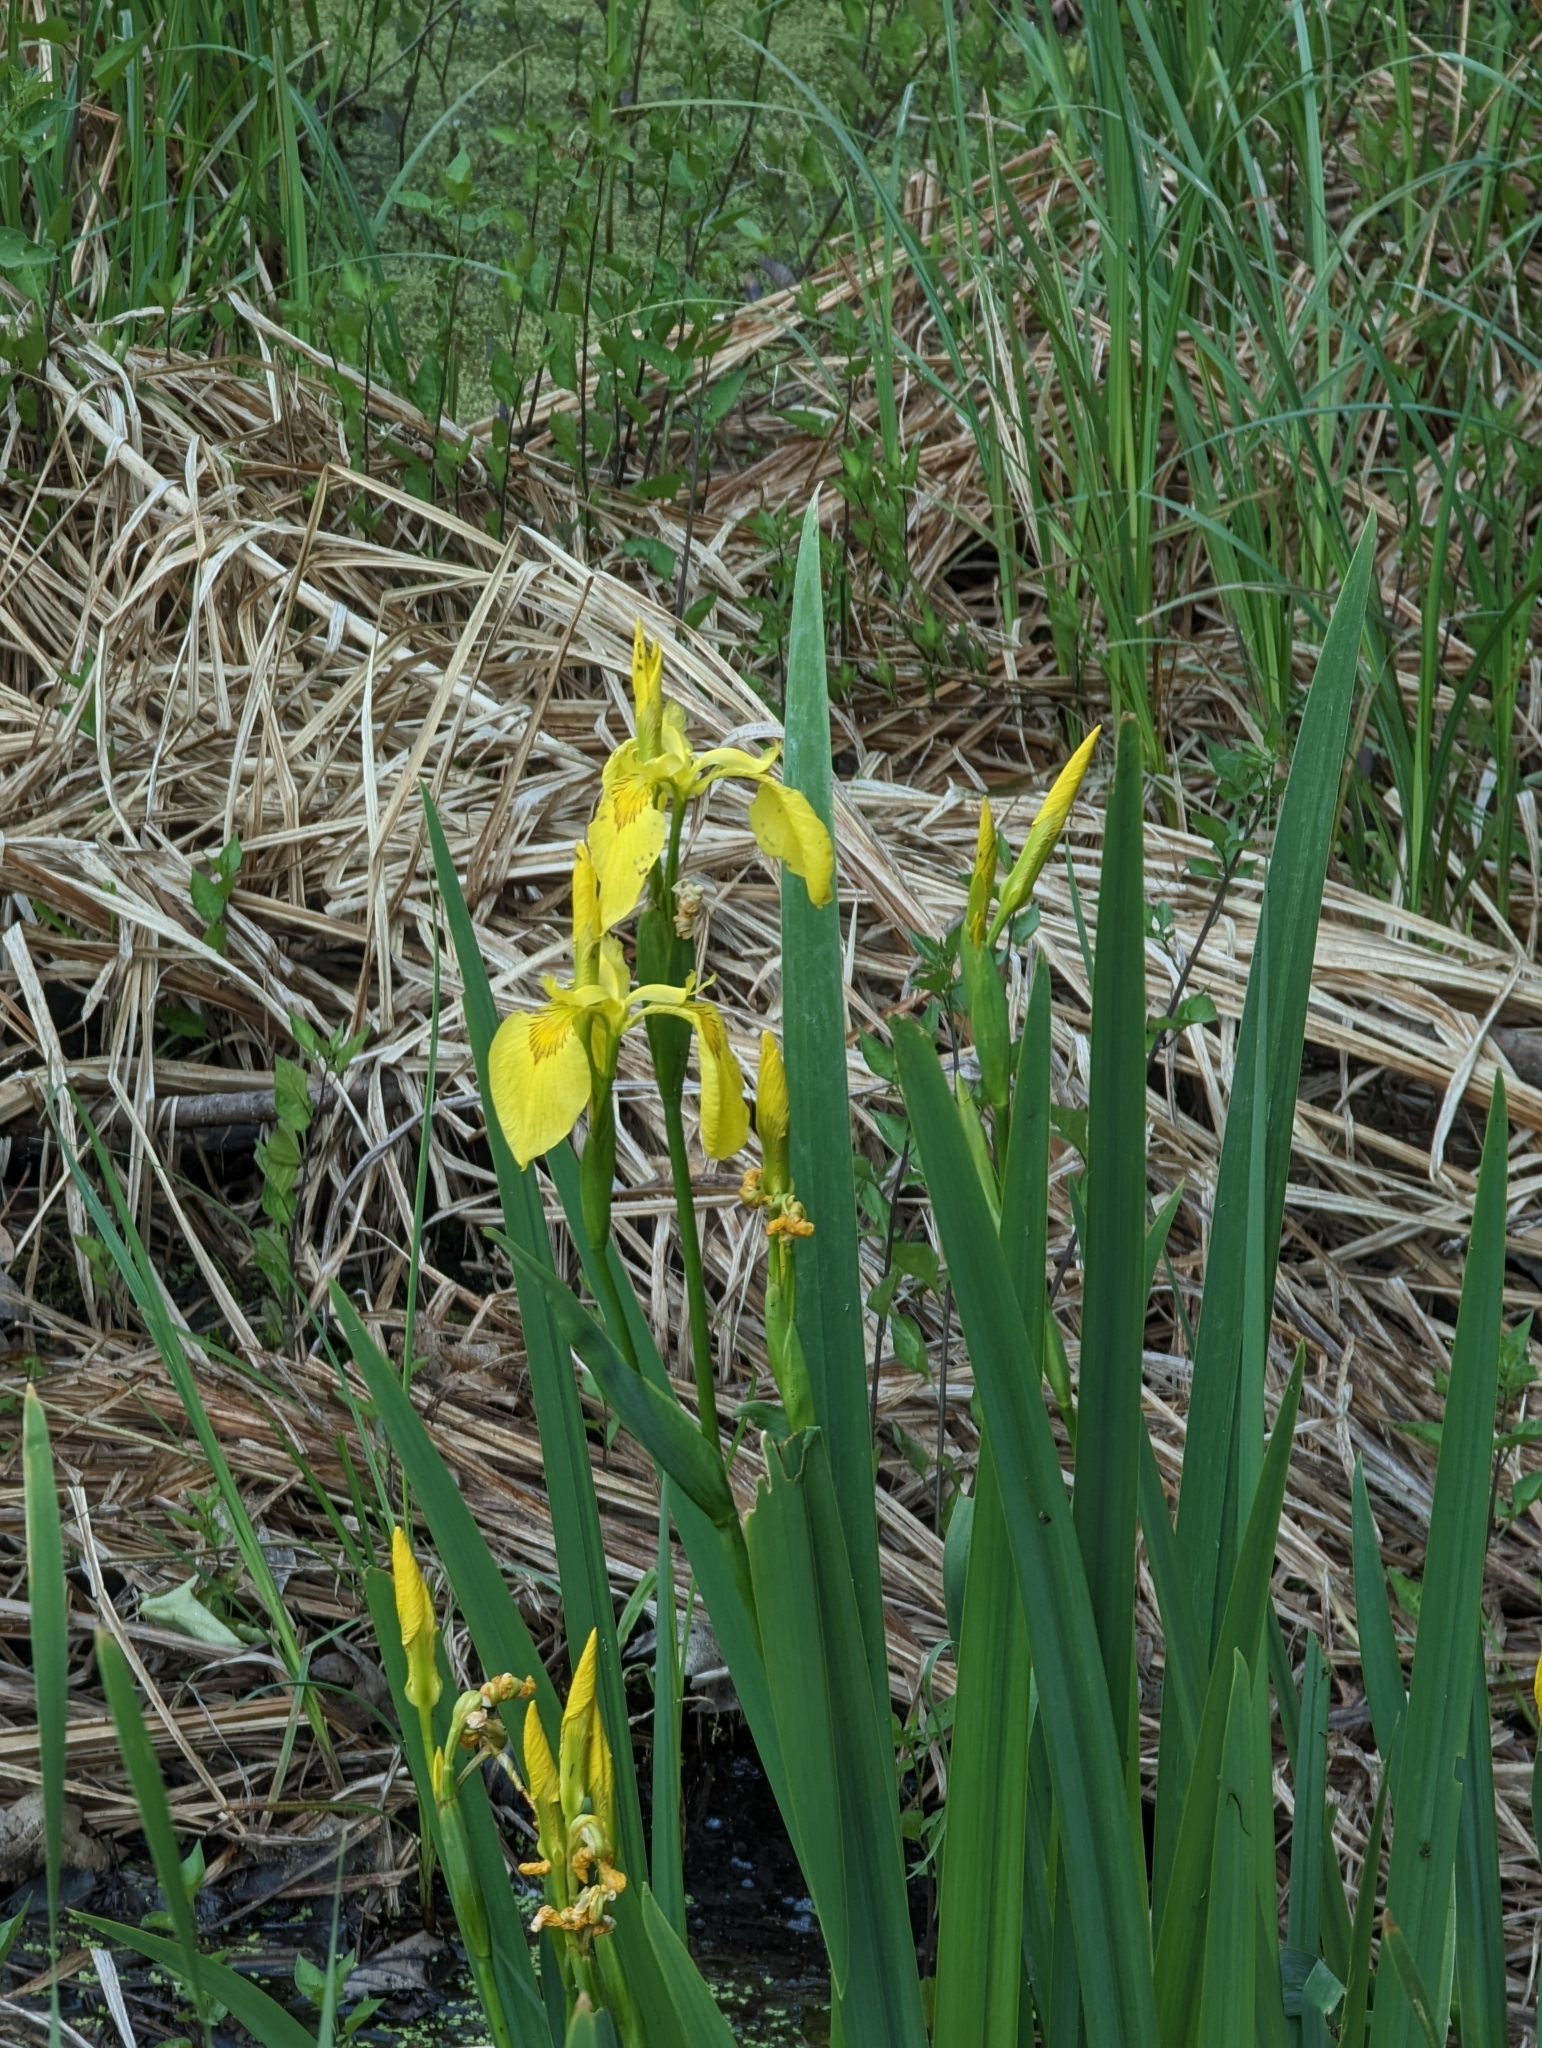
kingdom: Plantae
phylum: Tracheophyta
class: Liliopsida
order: Asparagales
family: Iridaceae
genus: Iris
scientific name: Iris pseudacorus
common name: Yellow flag
